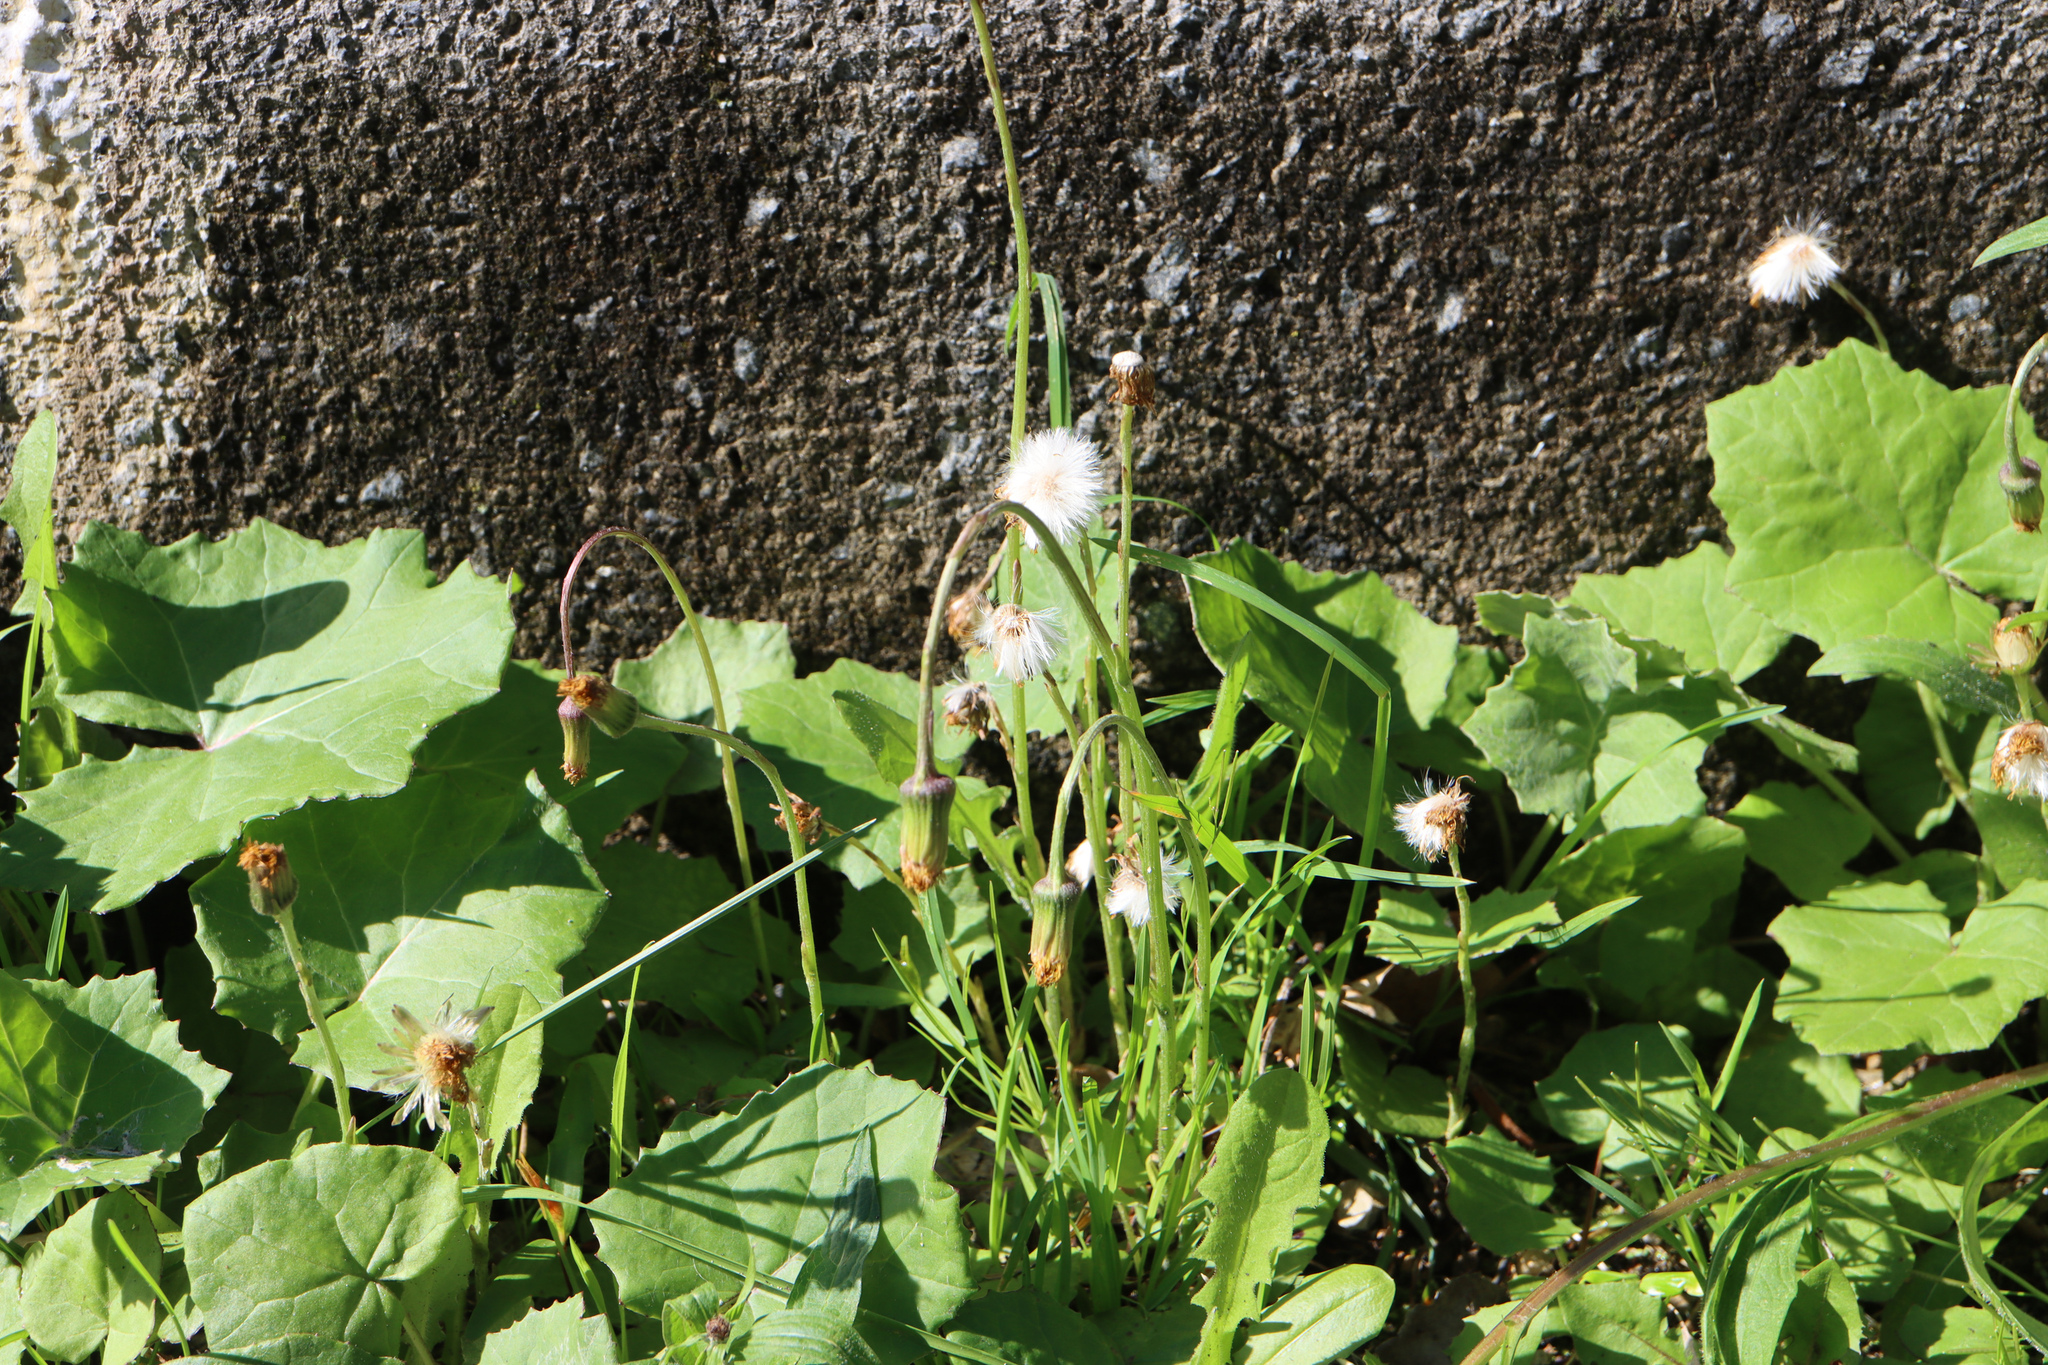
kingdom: Plantae
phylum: Tracheophyta
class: Magnoliopsida
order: Asterales
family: Asteraceae
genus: Tussilago
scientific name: Tussilago farfara
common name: Coltsfoot
